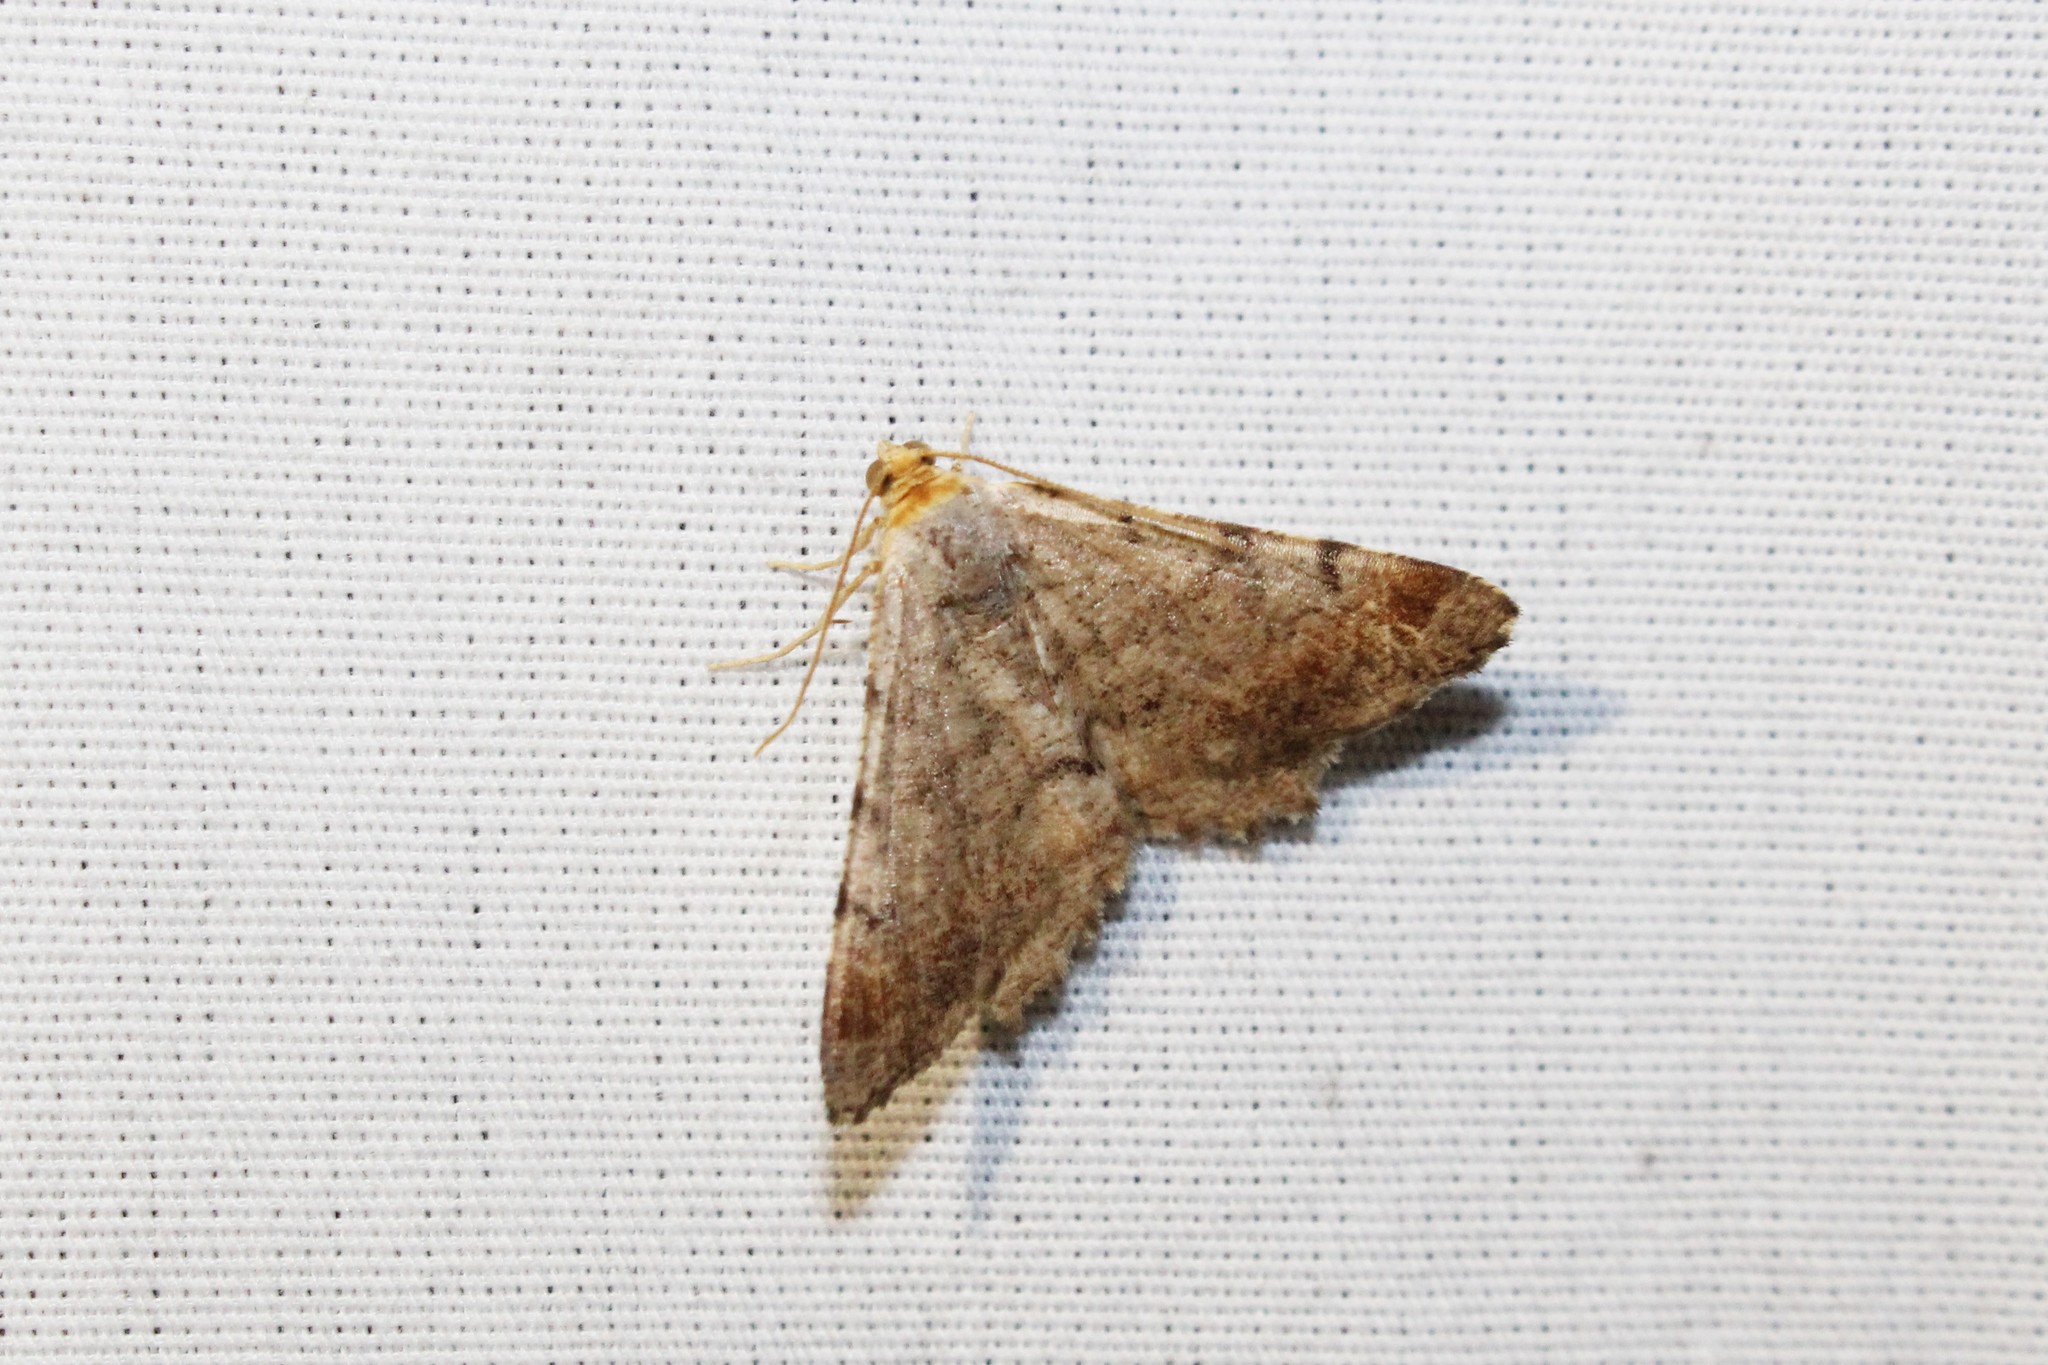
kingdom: Animalia
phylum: Arthropoda
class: Insecta
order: Lepidoptera
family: Geometridae
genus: Macaria
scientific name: Macaria minorata
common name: Minor angle moth
